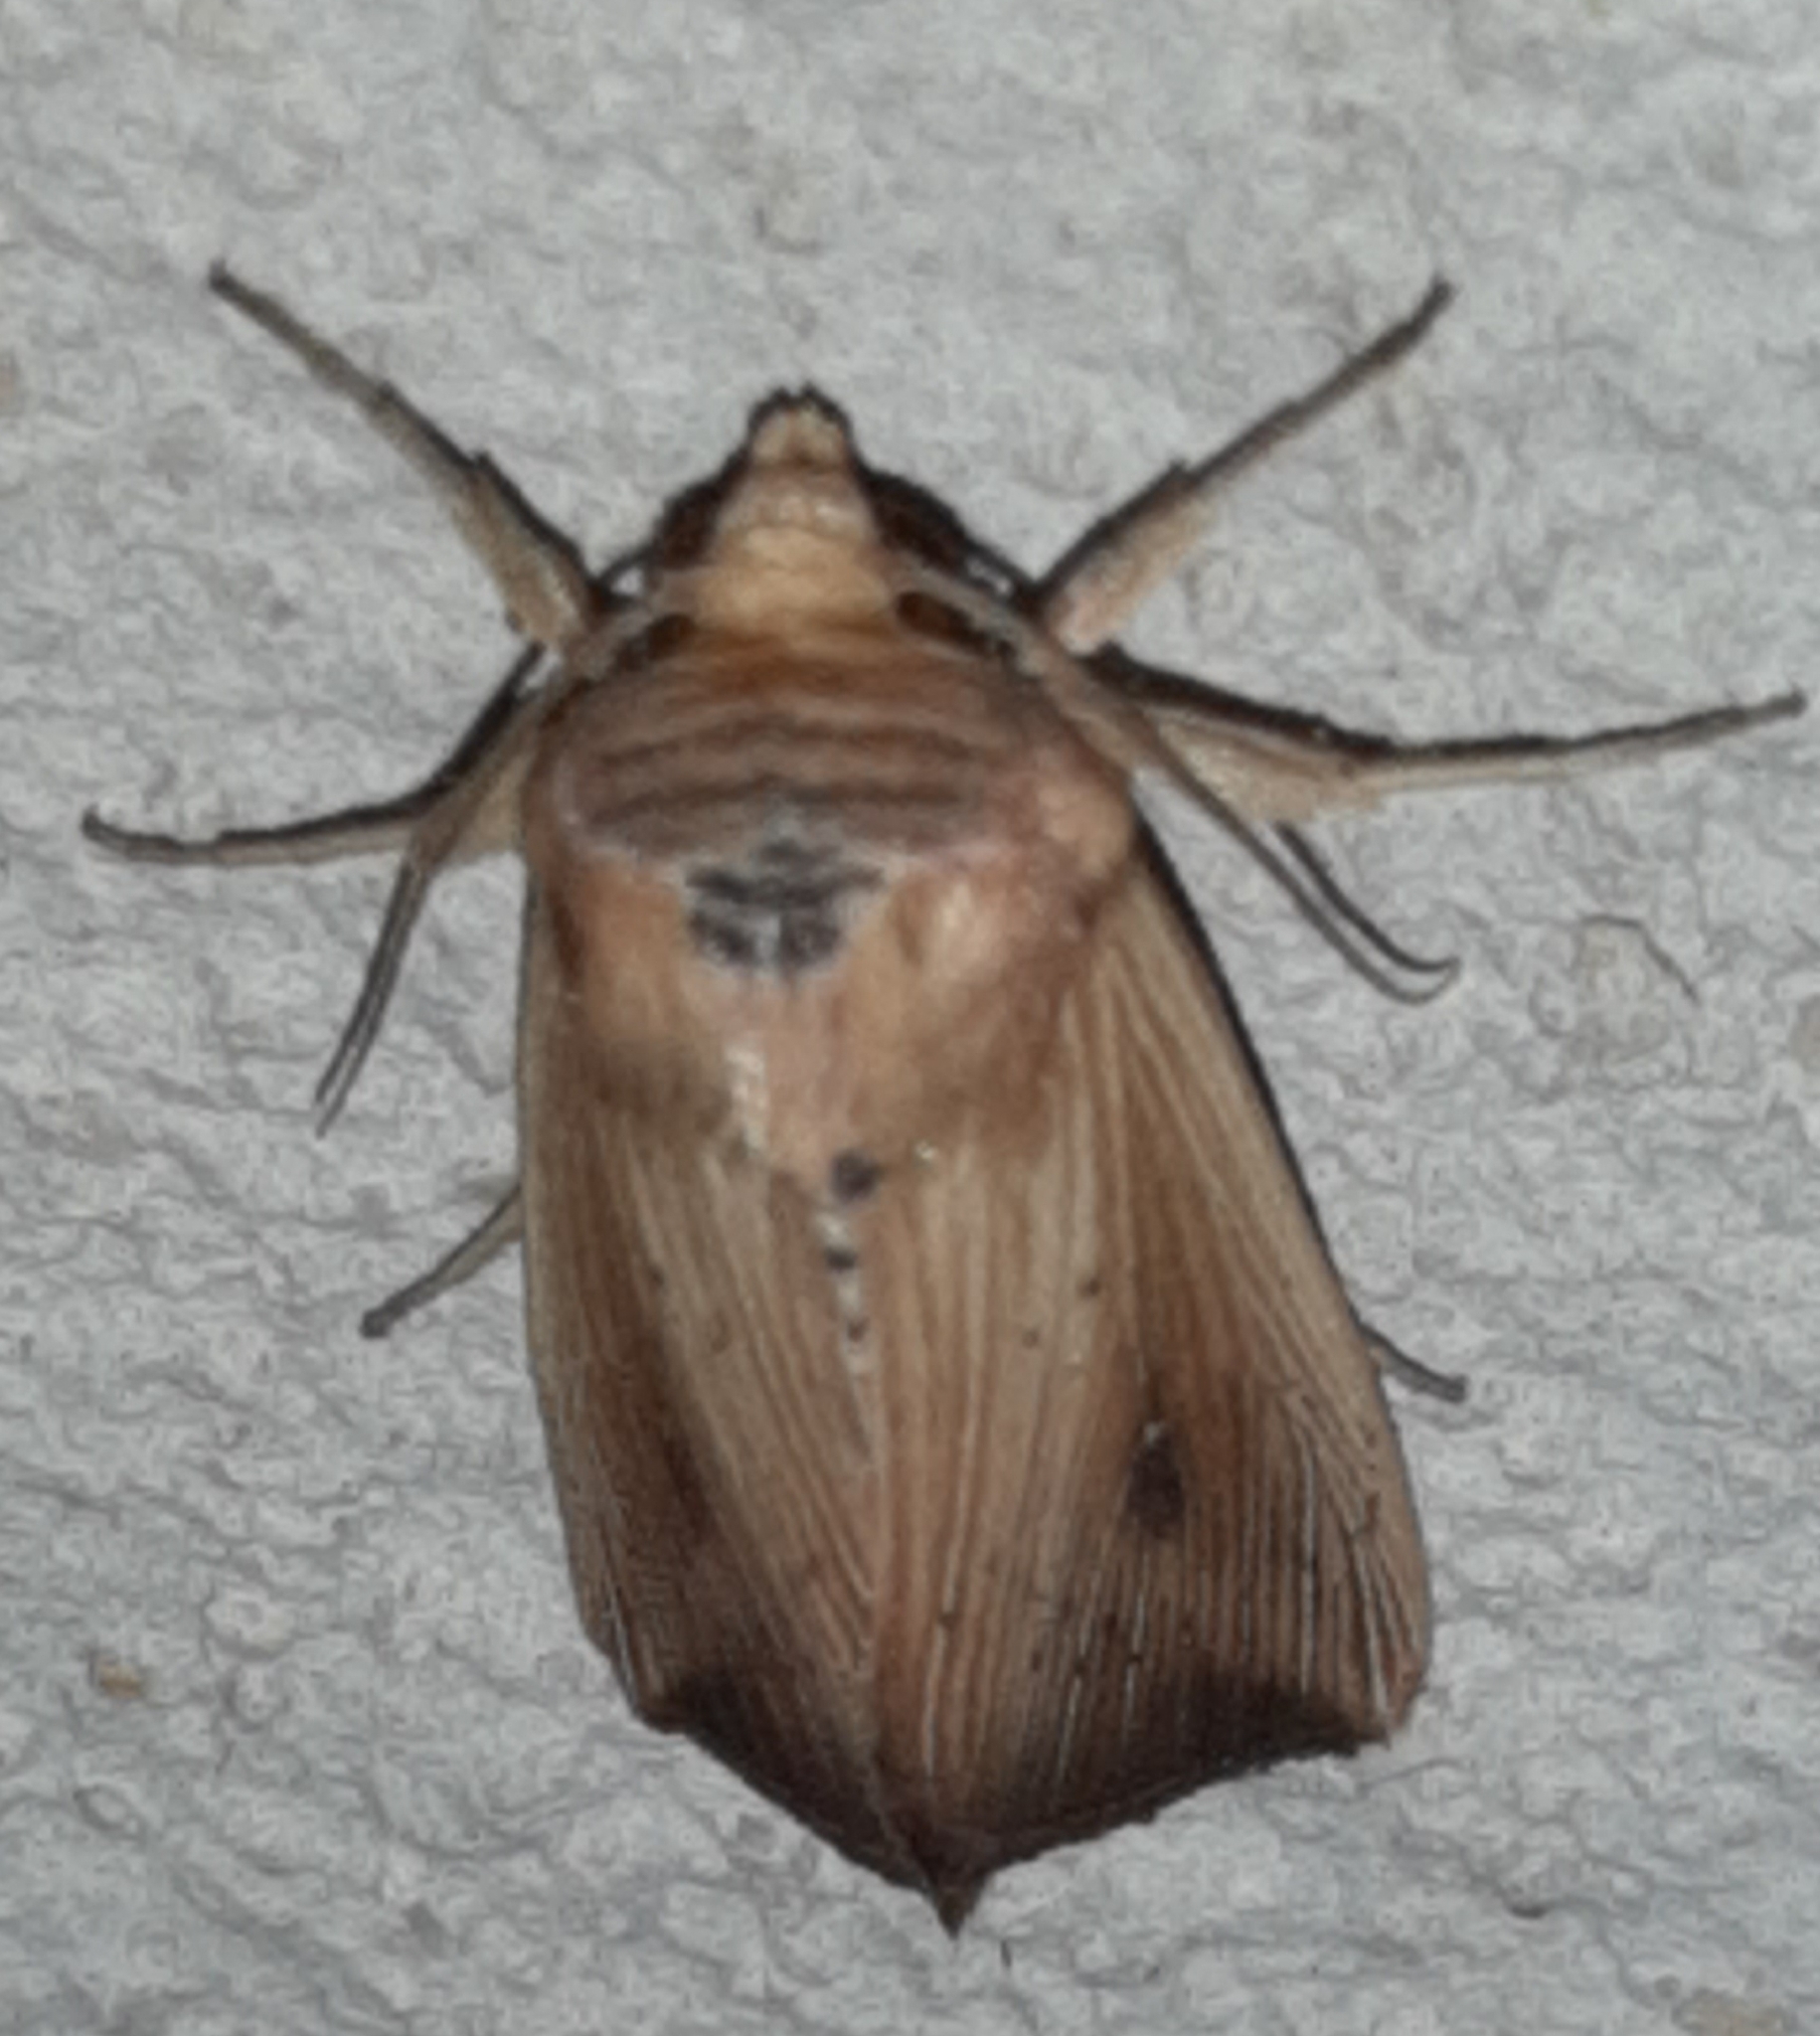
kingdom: Animalia
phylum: Arthropoda
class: Insecta
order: Lepidoptera
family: Noctuidae
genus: Leucania
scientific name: Leucania incognita
